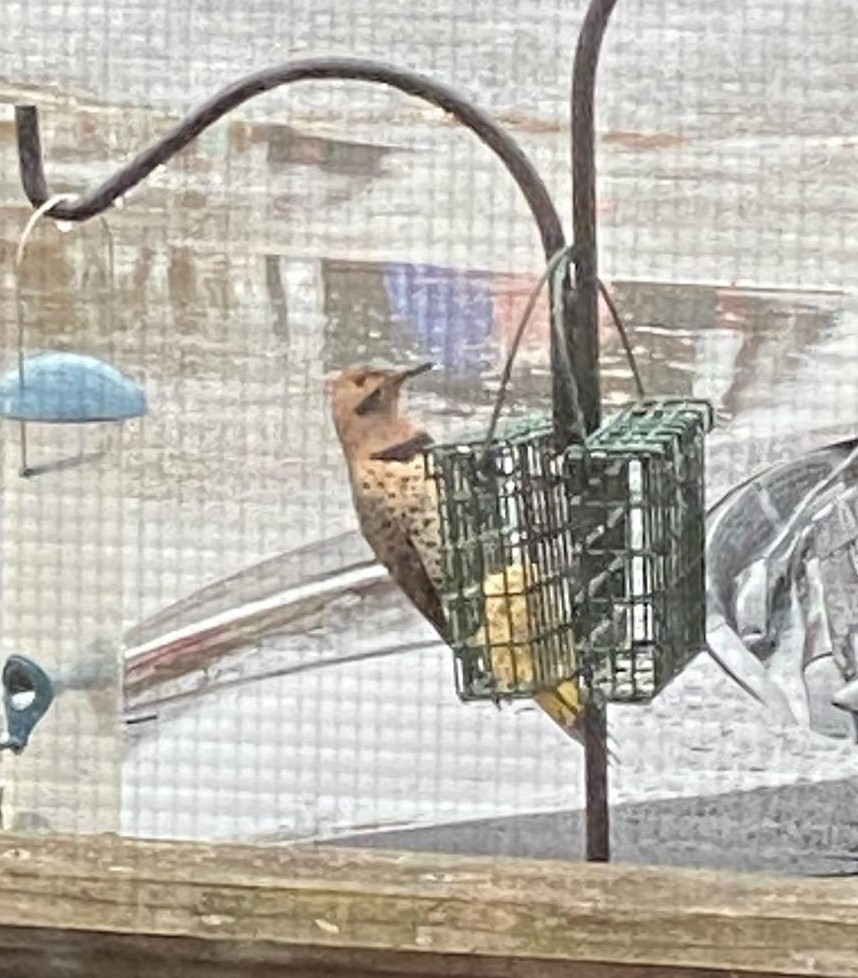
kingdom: Animalia
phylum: Chordata
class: Aves
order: Piciformes
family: Picidae
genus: Colaptes
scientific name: Colaptes auratus
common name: Northern flicker
